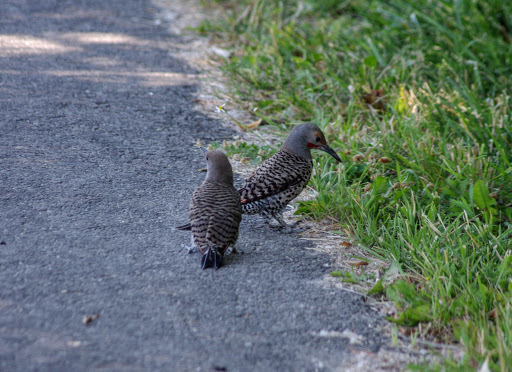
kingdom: Animalia
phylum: Chordata
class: Aves
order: Piciformes
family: Picidae
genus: Colaptes
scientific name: Colaptes auratus
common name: Northern flicker
